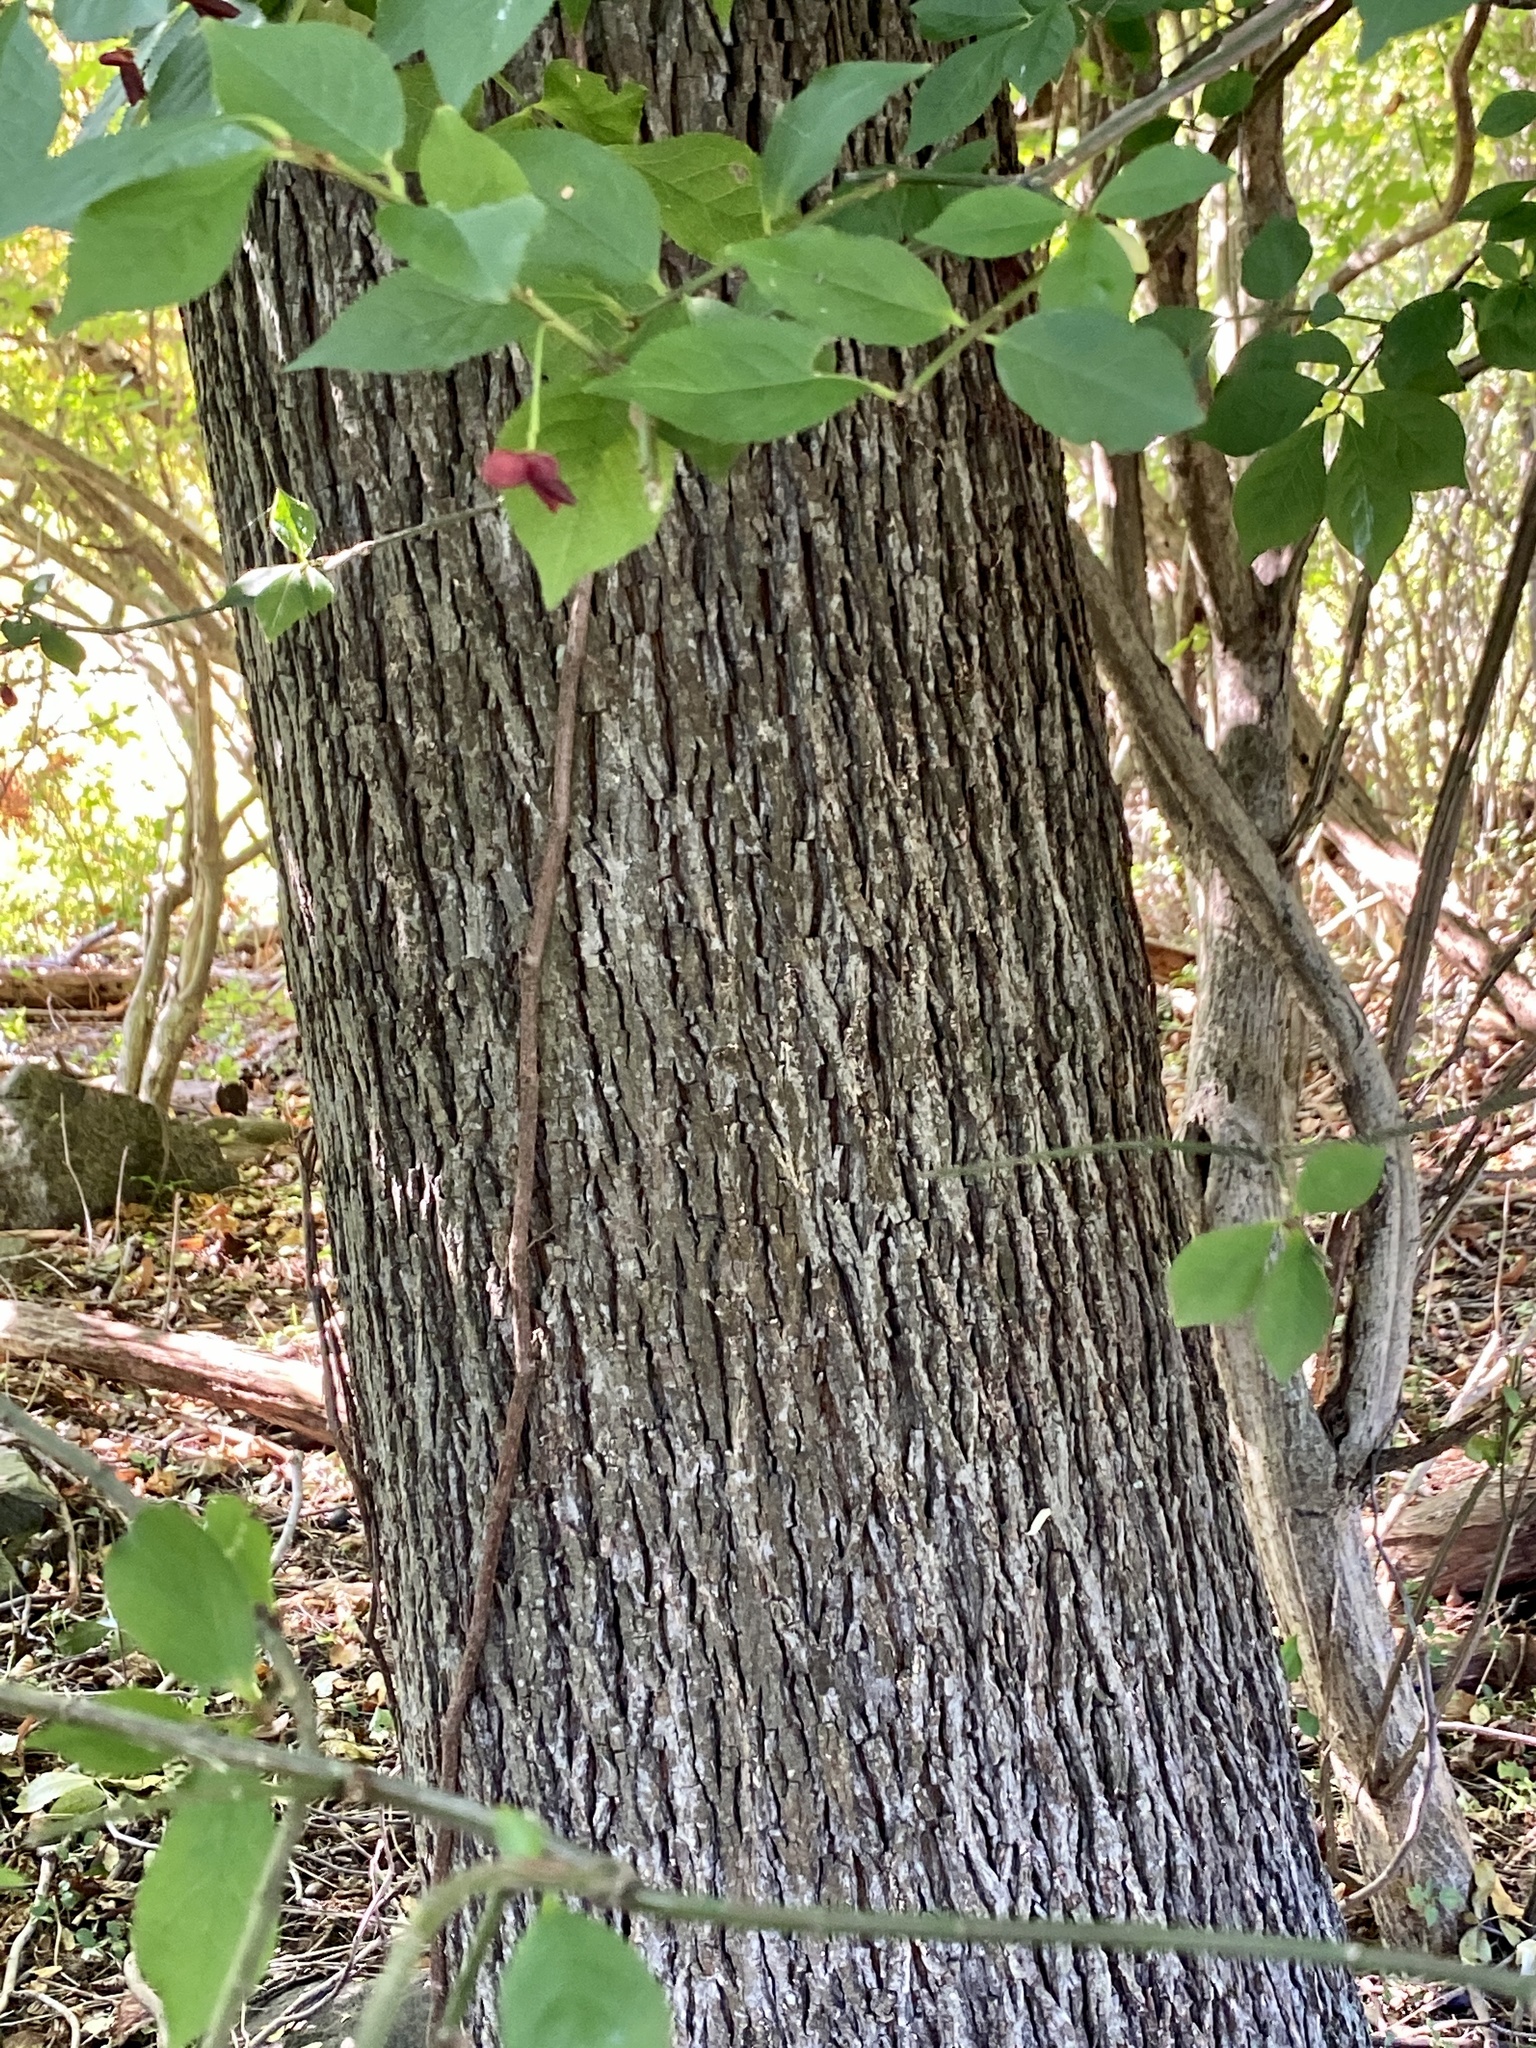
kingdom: Plantae
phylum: Tracheophyta
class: Magnoliopsida
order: Fagales
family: Juglandaceae
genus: Carya
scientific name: Carya glabra
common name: Pignut hickory
